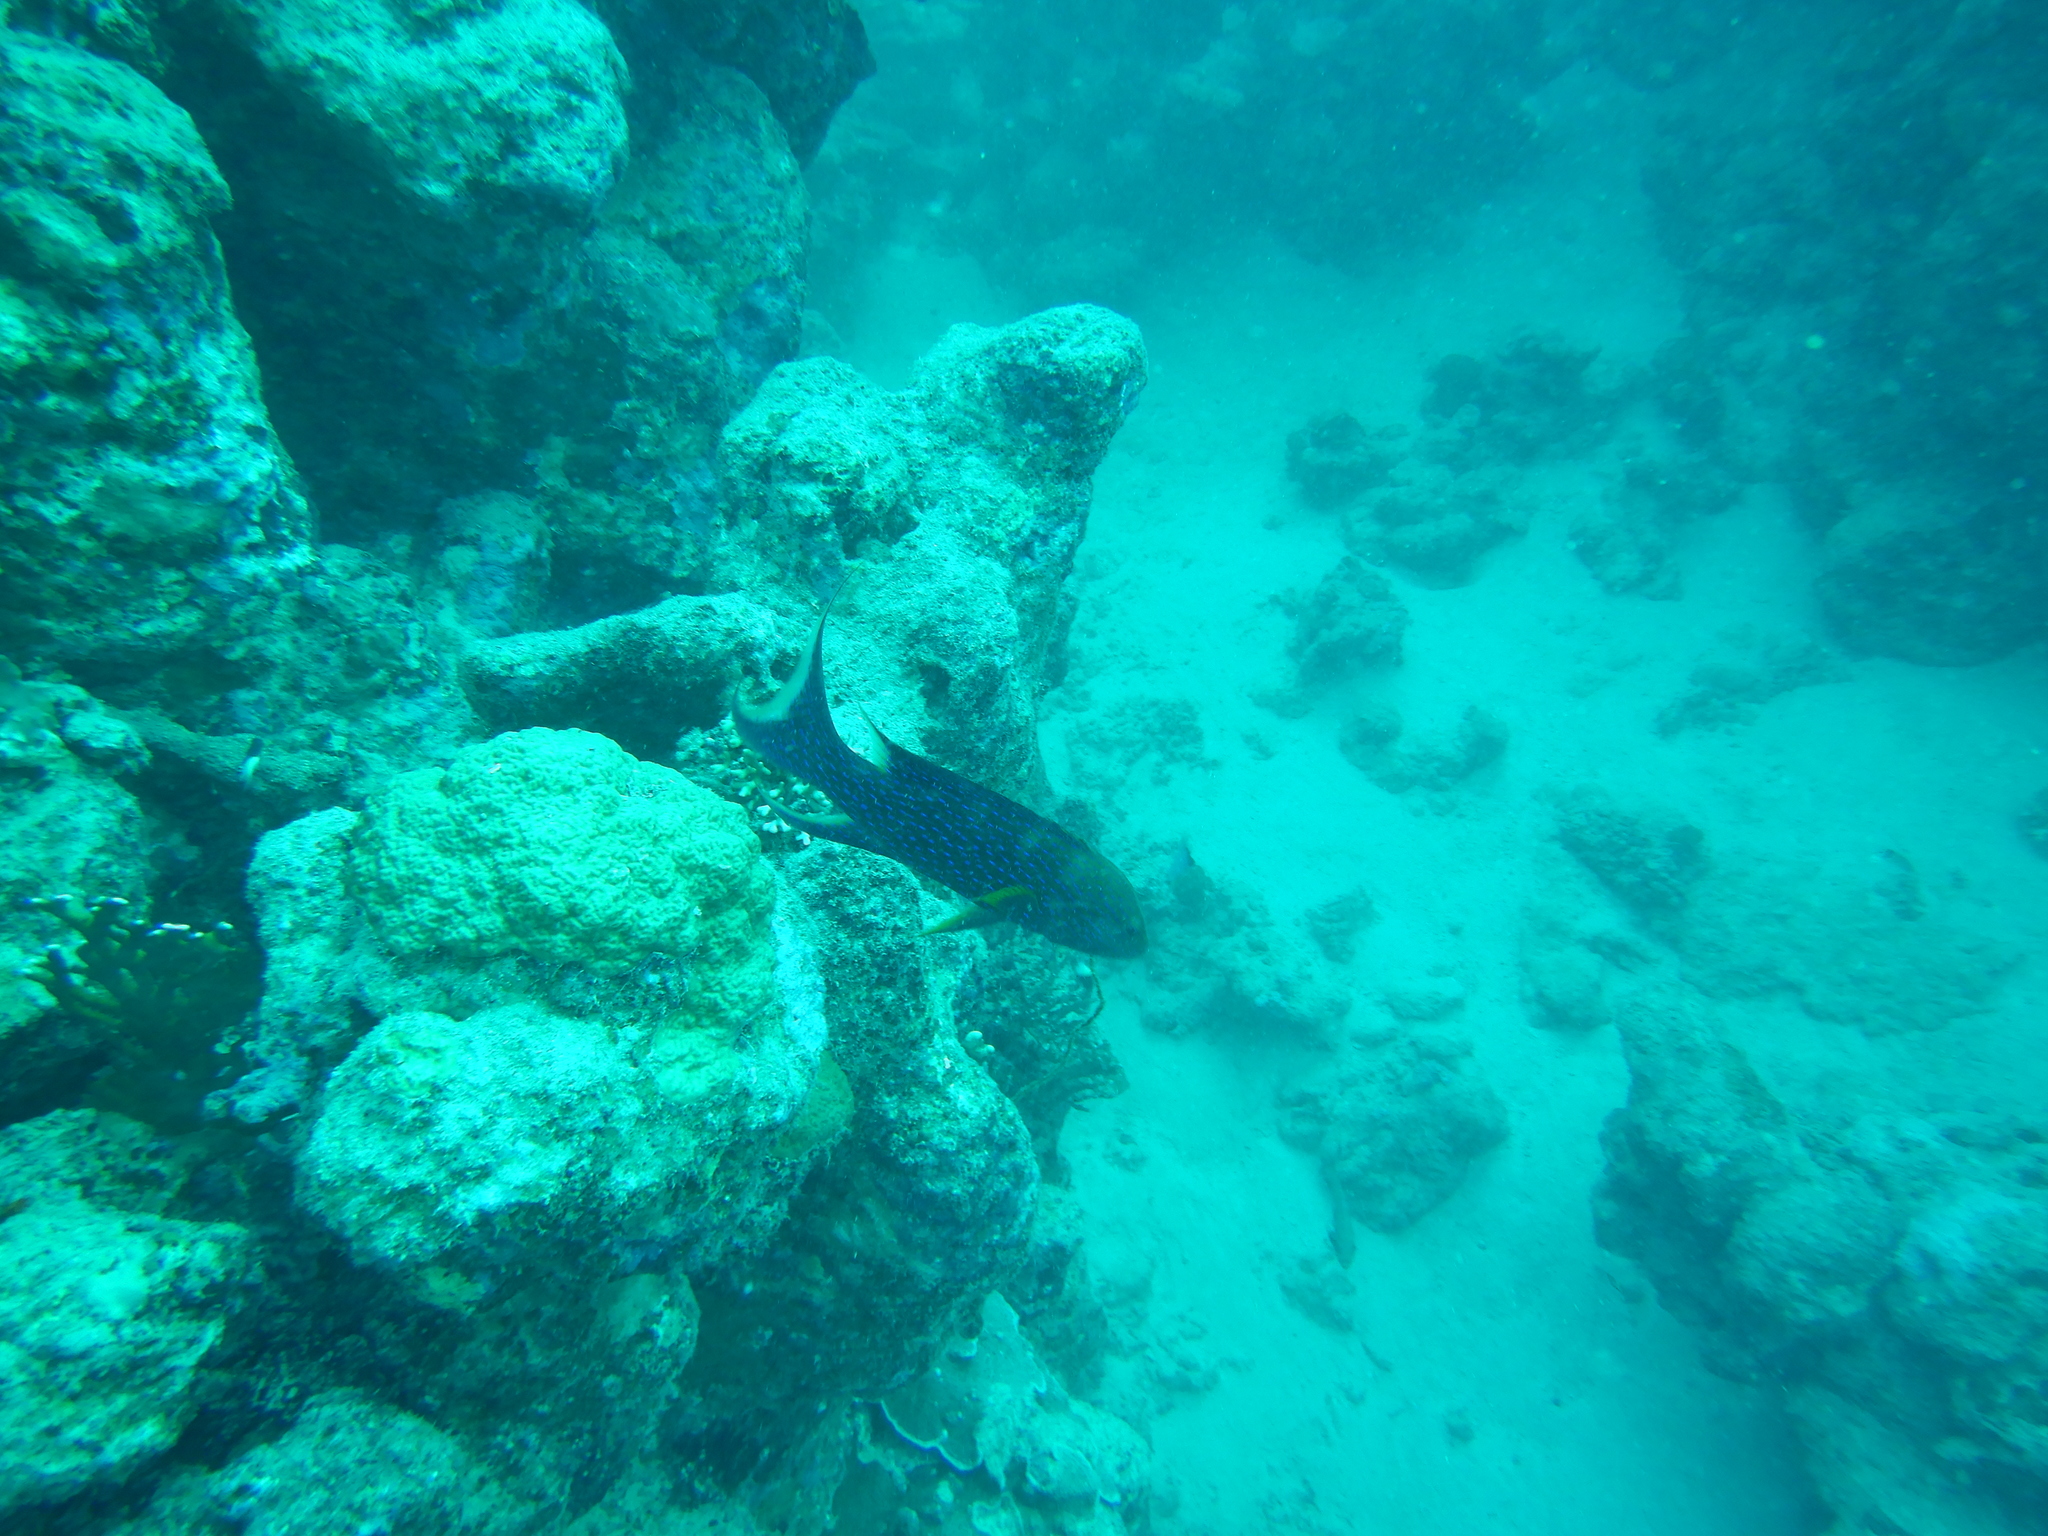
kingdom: Animalia
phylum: Chordata
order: Perciformes
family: Serranidae
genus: Variola
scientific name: Variola louti
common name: Yellow-edged lyretail
